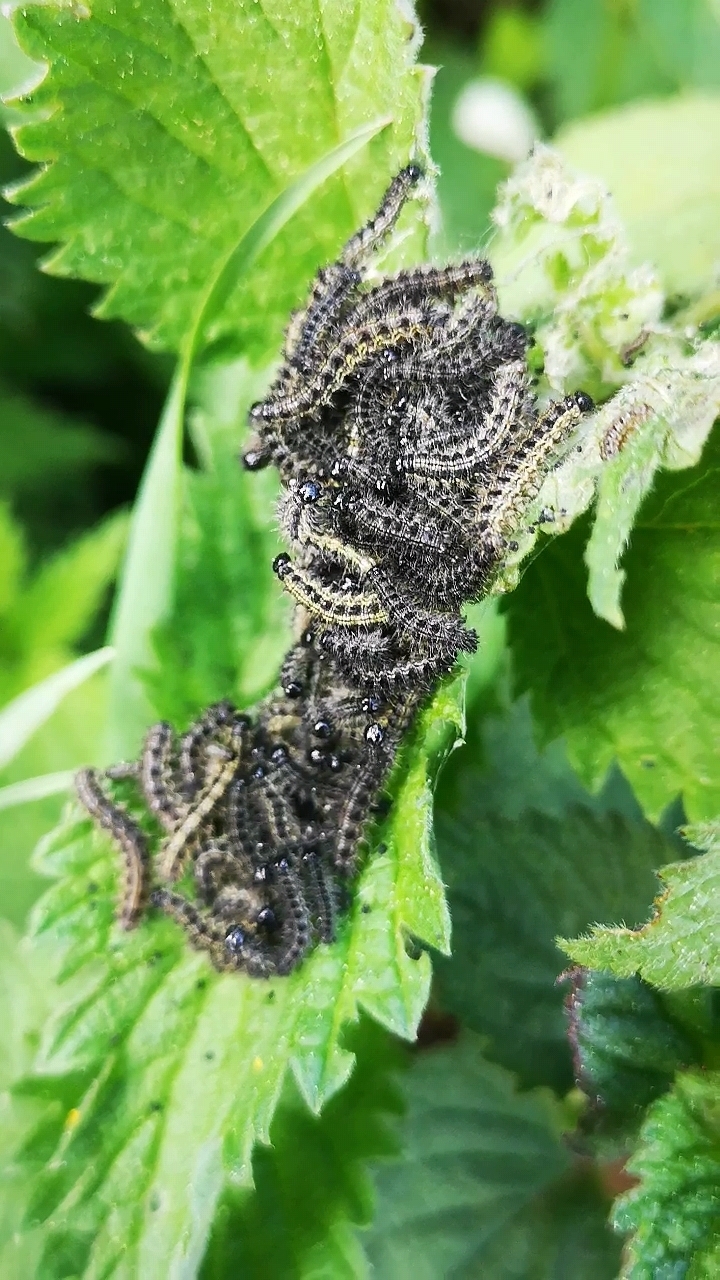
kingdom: Animalia
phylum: Arthropoda
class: Insecta
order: Lepidoptera
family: Nymphalidae
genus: Aglais
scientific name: Aglais urticae
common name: Small tortoiseshell
